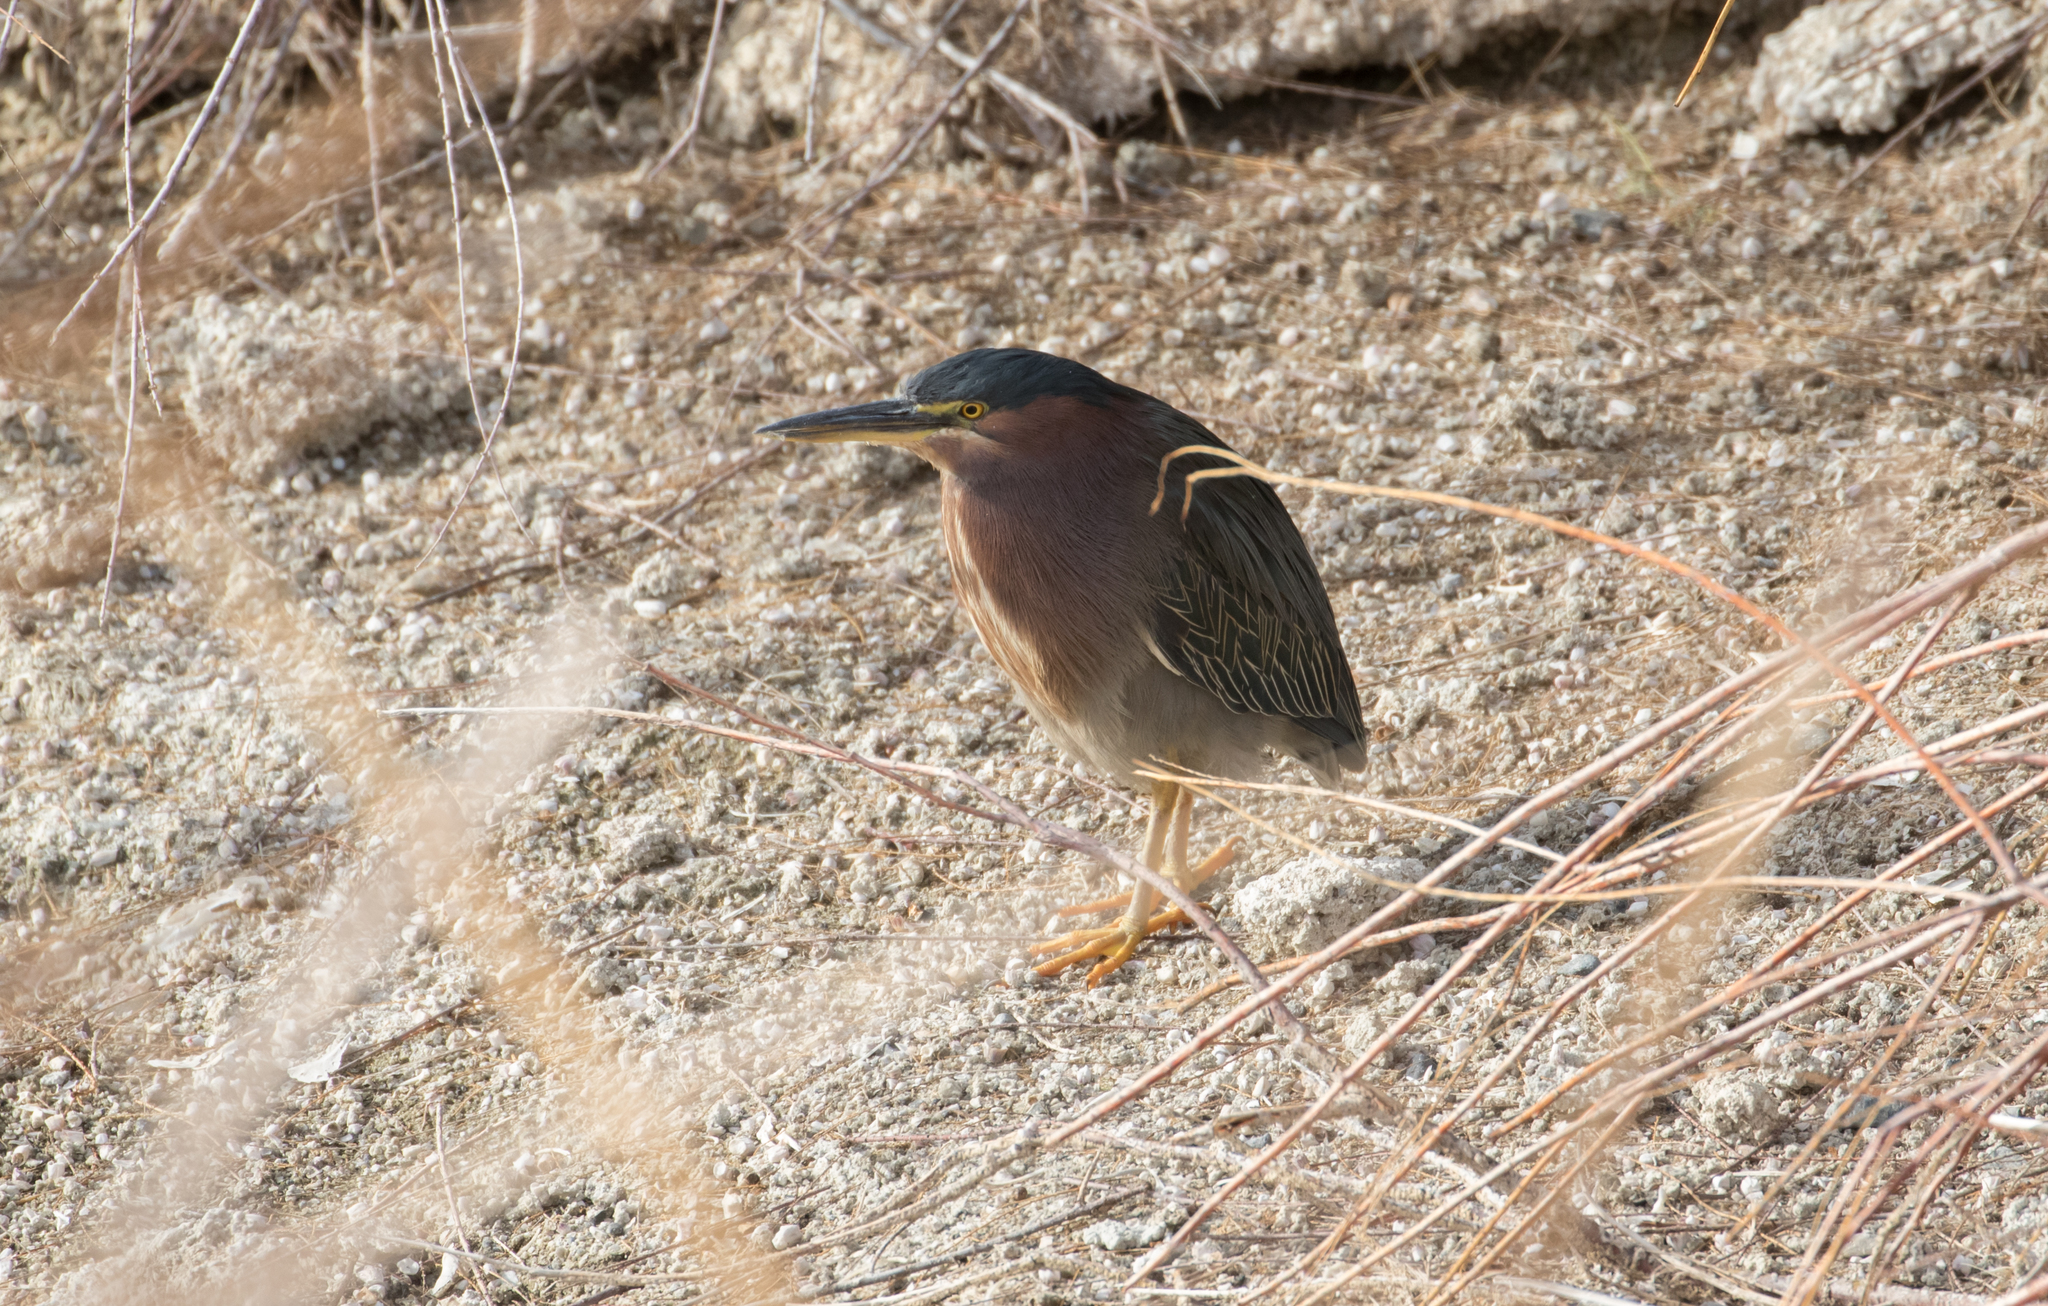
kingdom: Animalia
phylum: Chordata
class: Aves
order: Pelecaniformes
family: Ardeidae
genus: Butorides
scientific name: Butorides virescens
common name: Green heron
